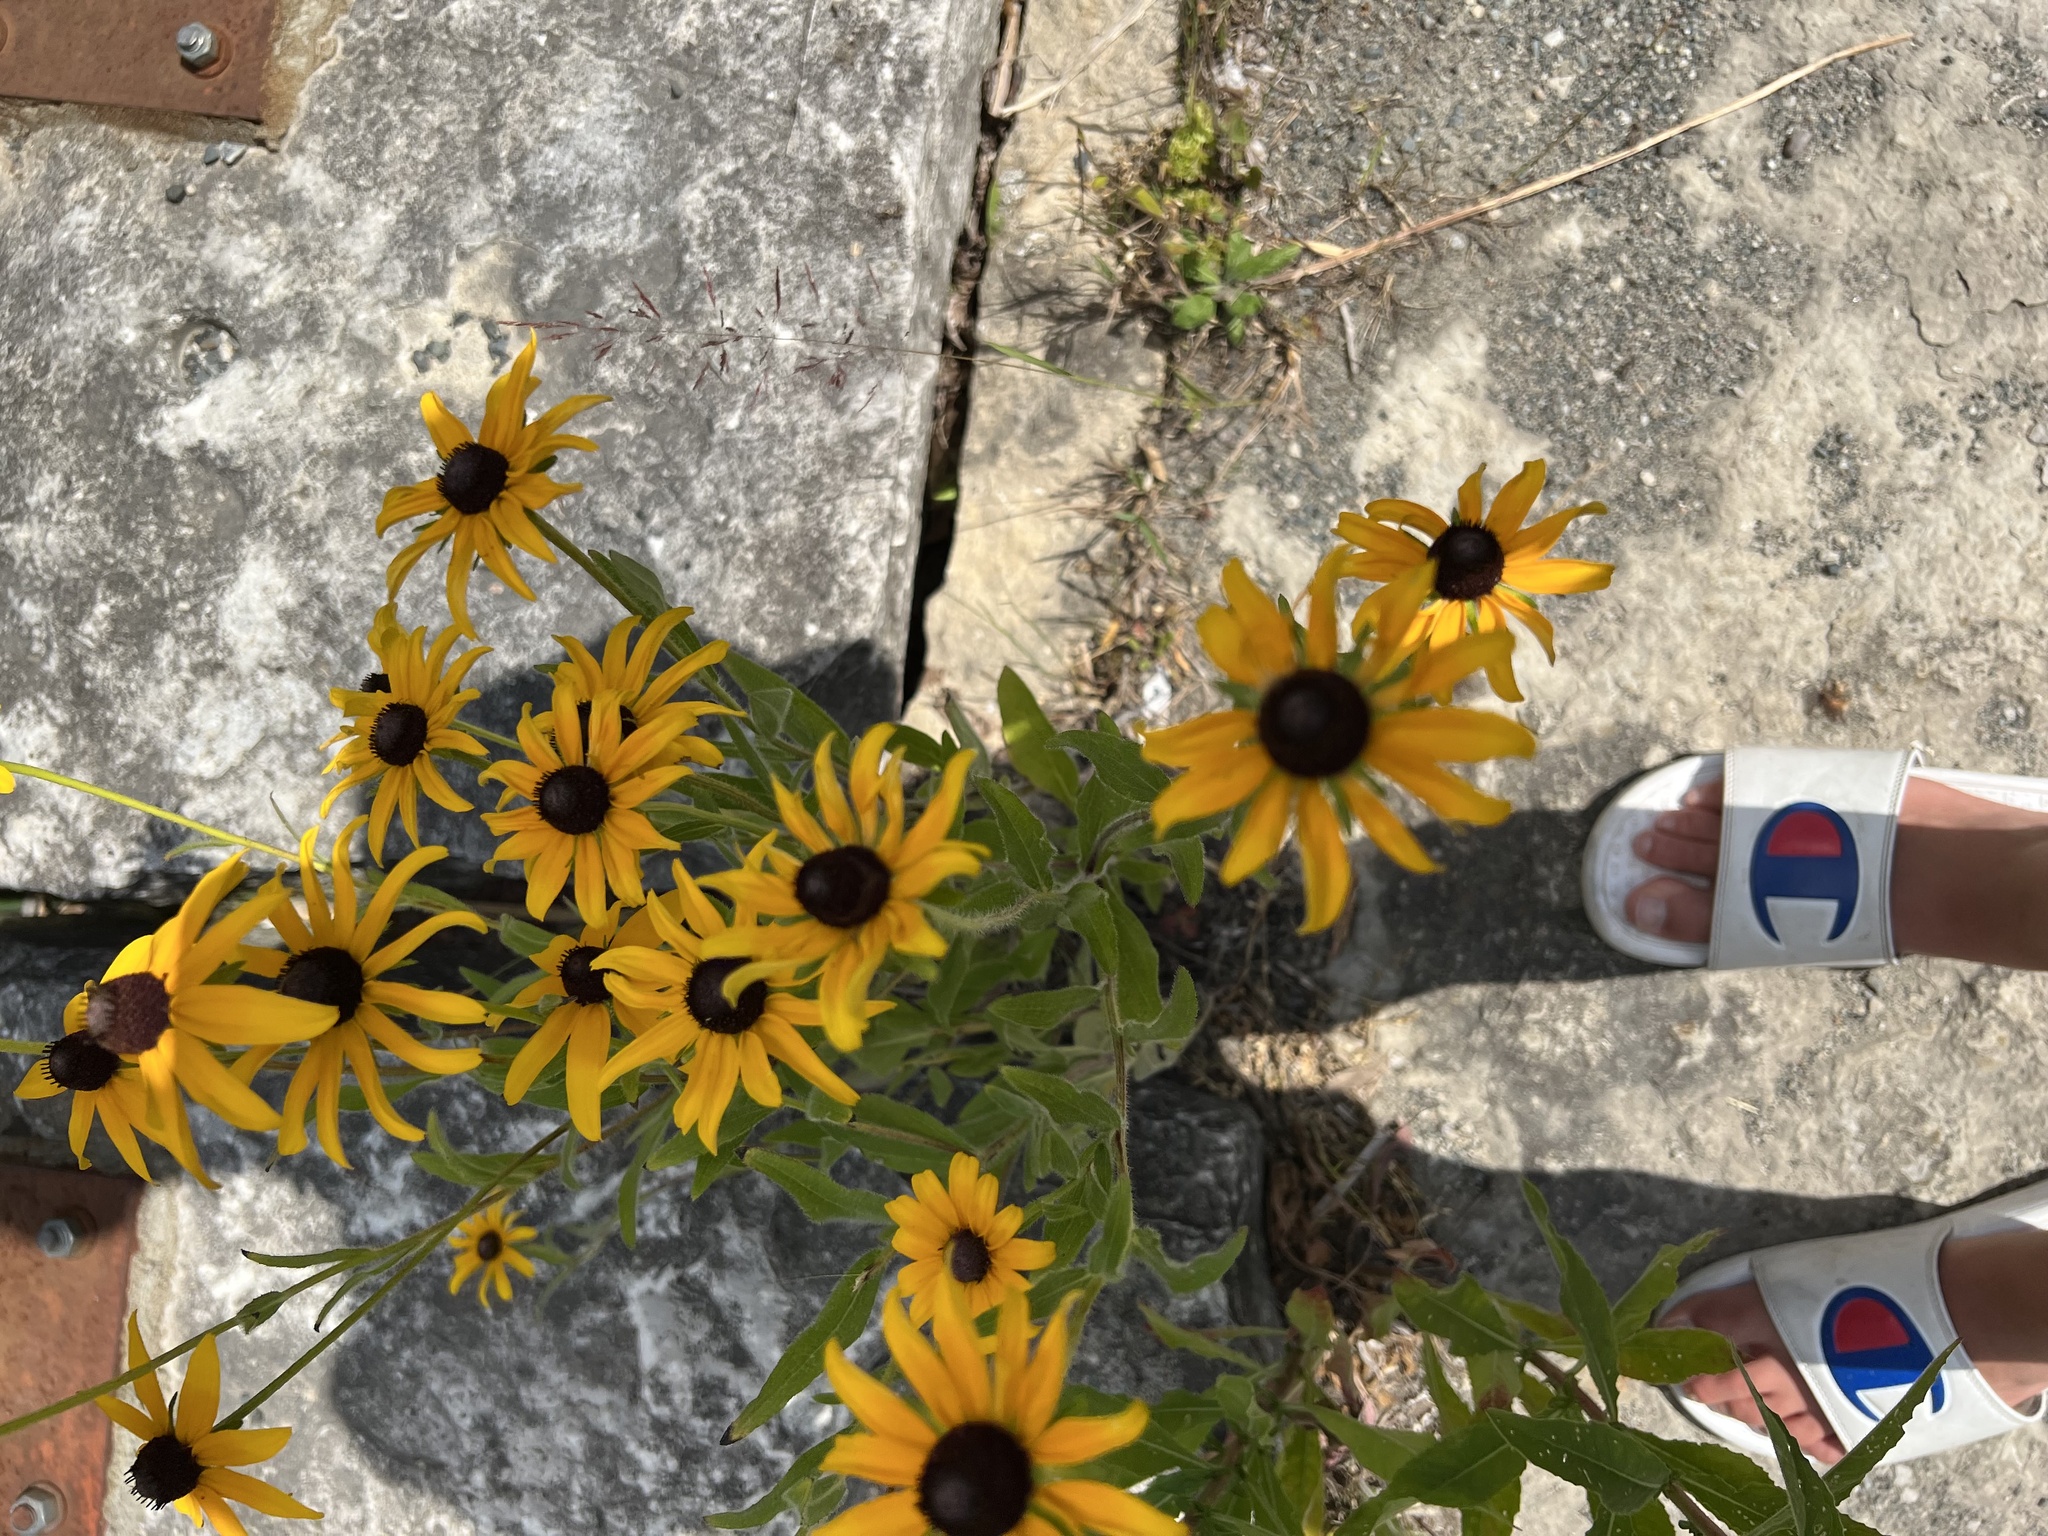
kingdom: Plantae
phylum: Tracheophyta
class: Magnoliopsida
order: Asterales
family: Asteraceae
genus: Rudbeckia
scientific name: Rudbeckia hirta
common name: Black-eyed-susan
